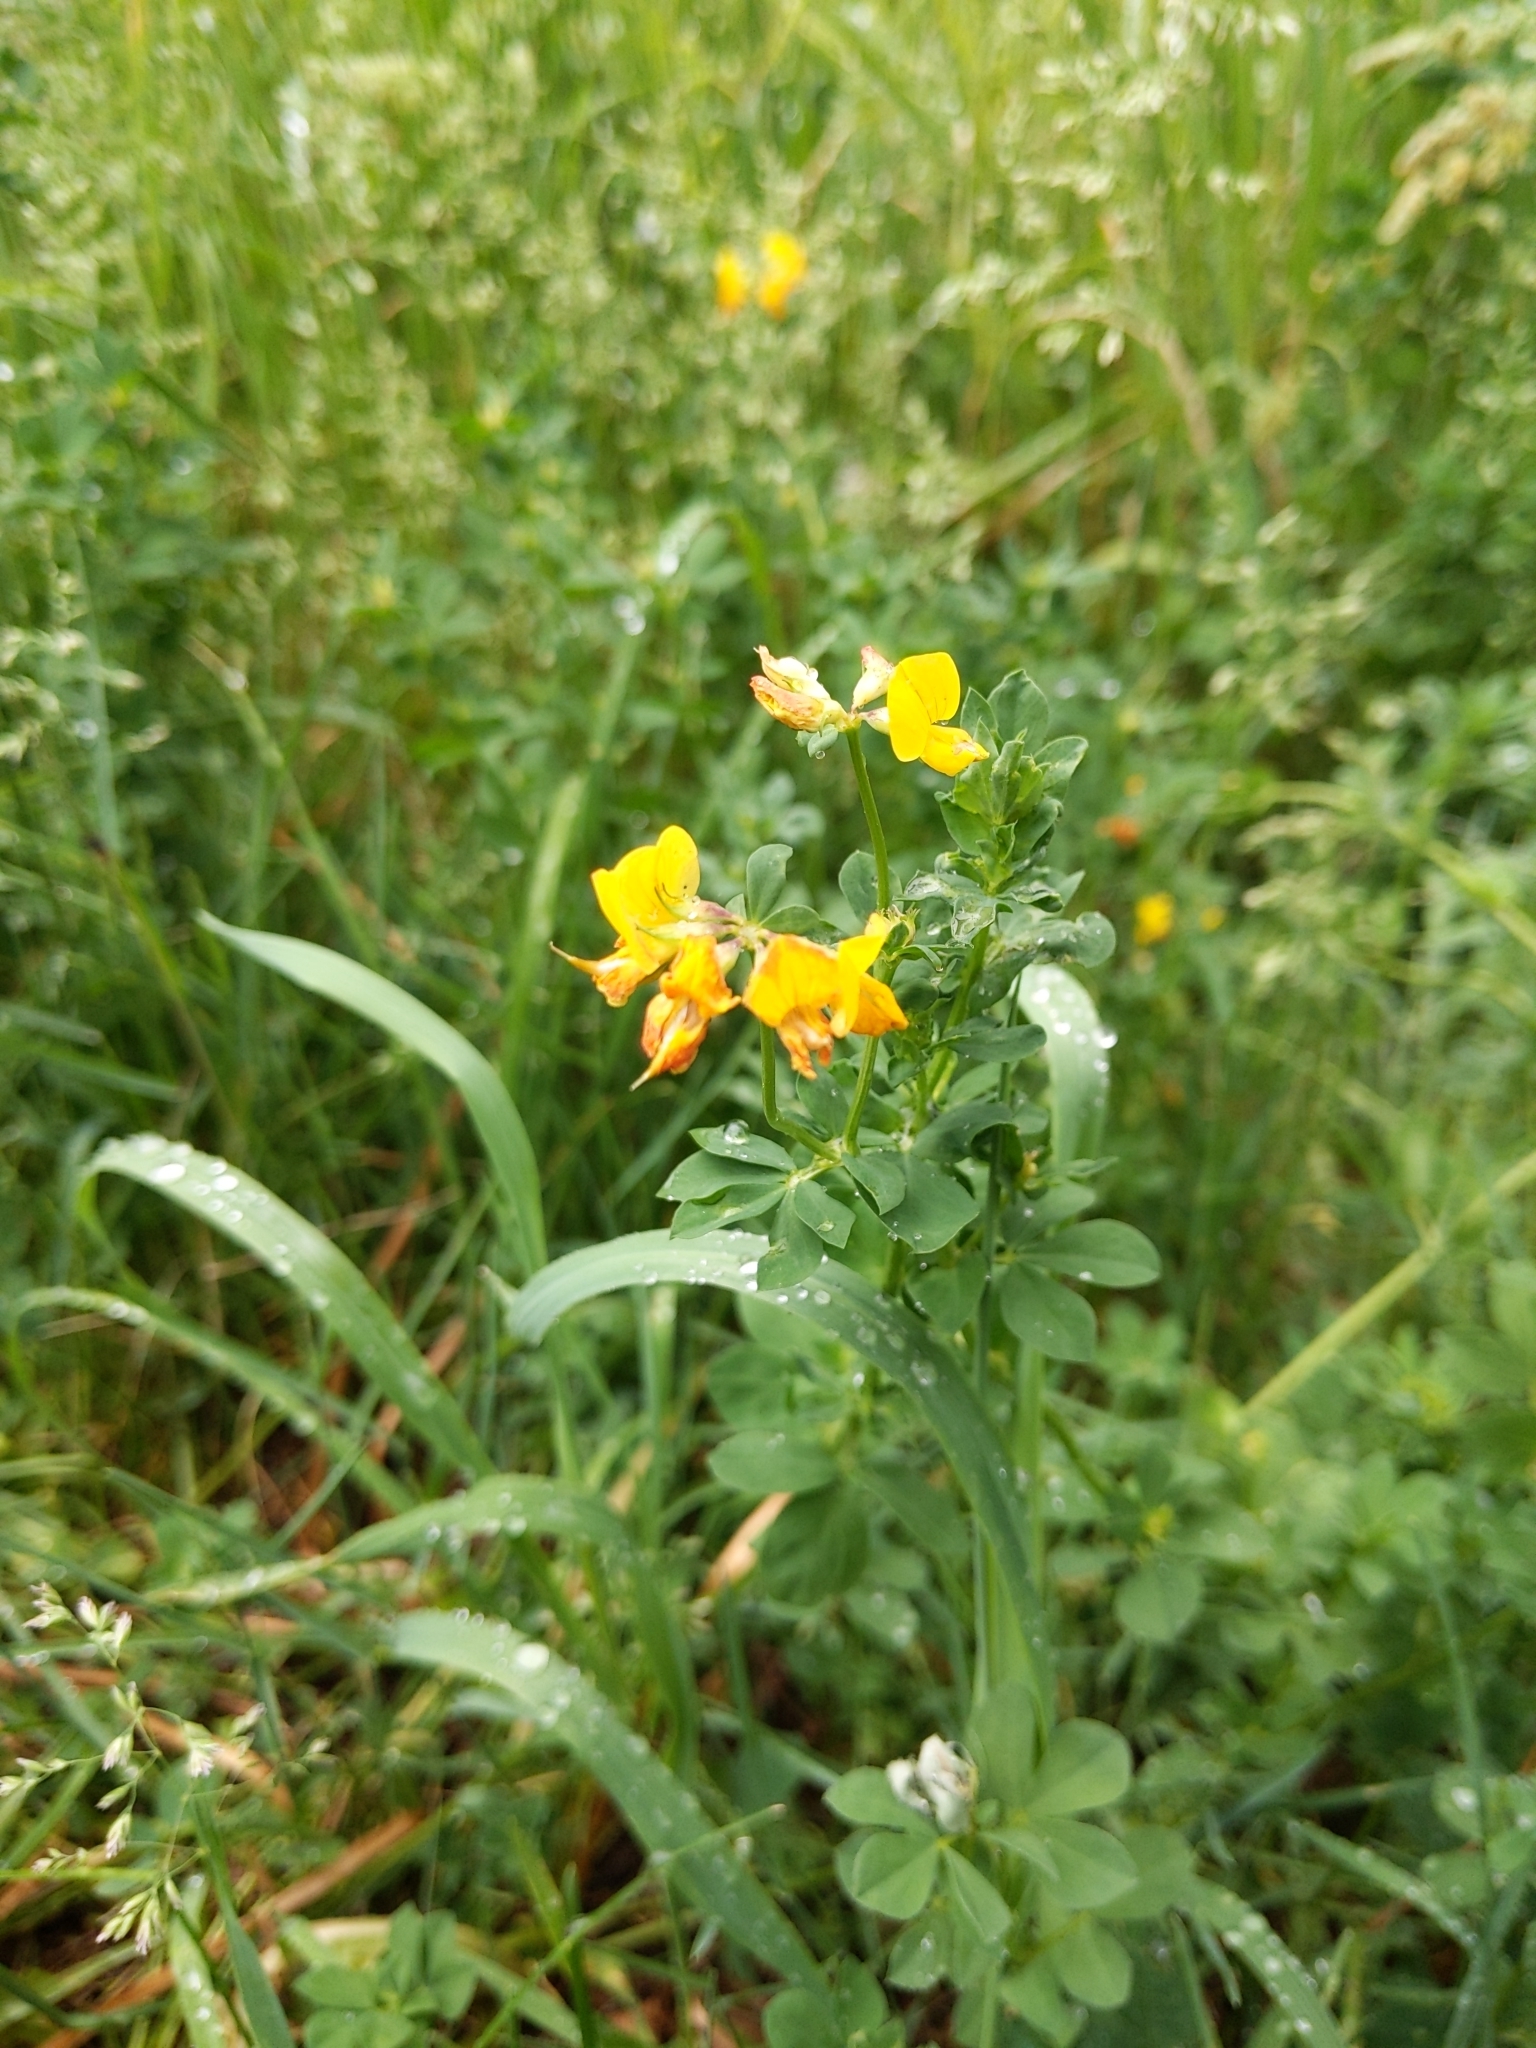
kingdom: Plantae
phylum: Tracheophyta
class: Magnoliopsida
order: Fabales
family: Fabaceae
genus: Lotus
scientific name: Lotus corniculatus
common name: Common bird's-foot-trefoil
